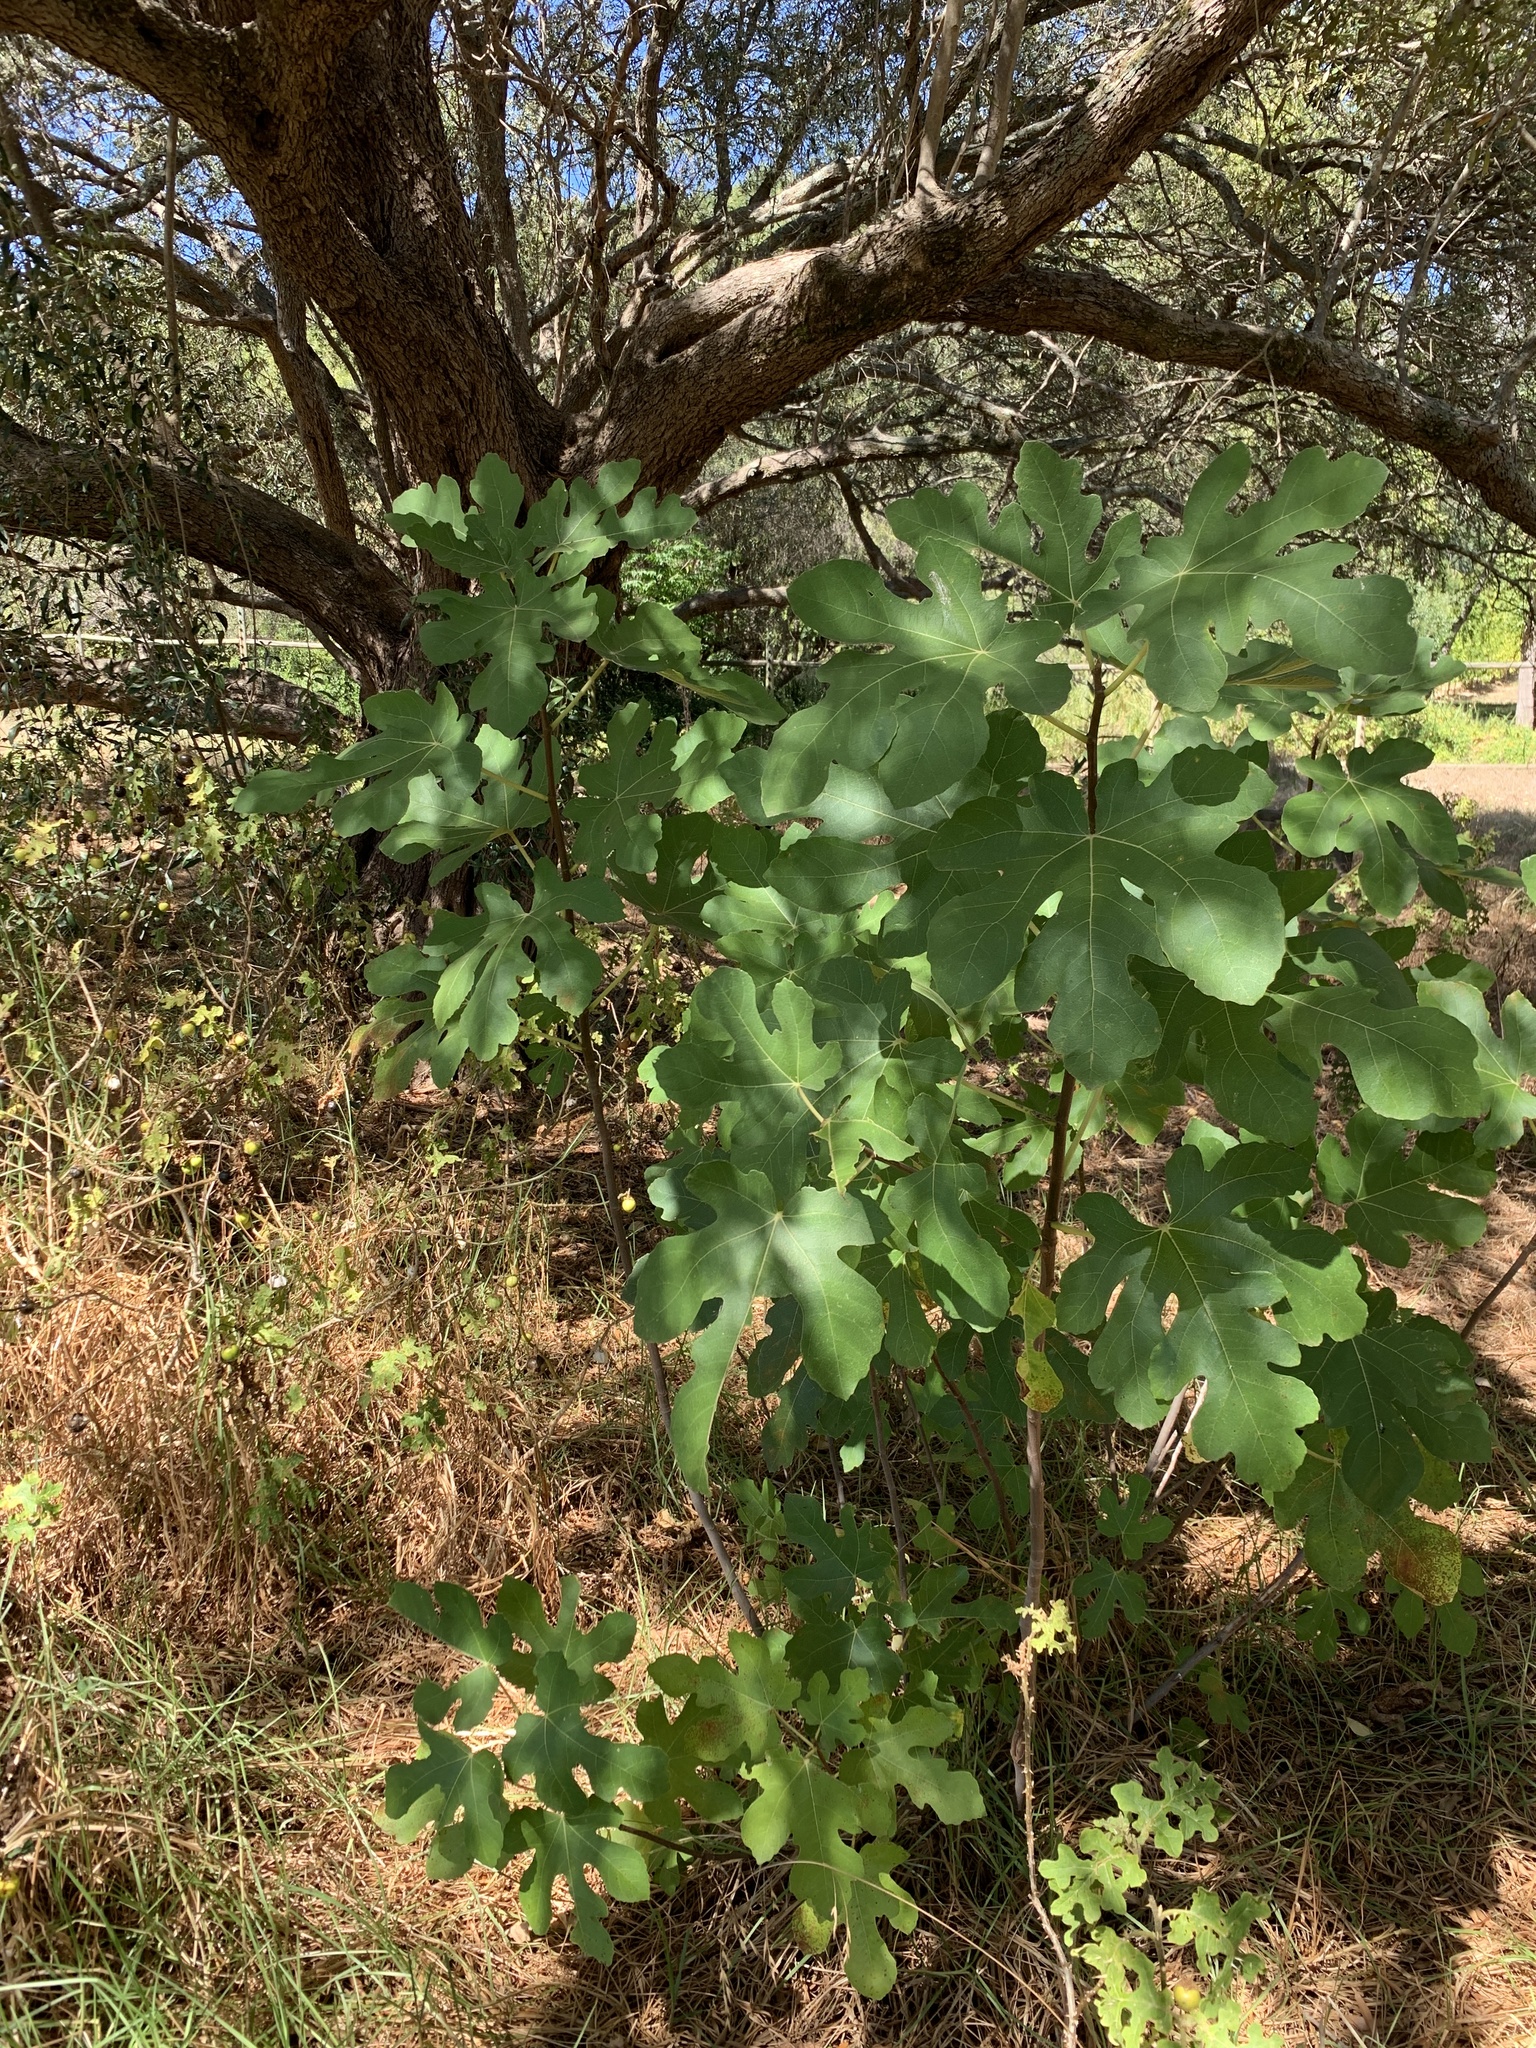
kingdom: Plantae
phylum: Tracheophyta
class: Magnoliopsida
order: Rosales
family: Moraceae
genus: Ficus
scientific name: Ficus carica
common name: Fig
